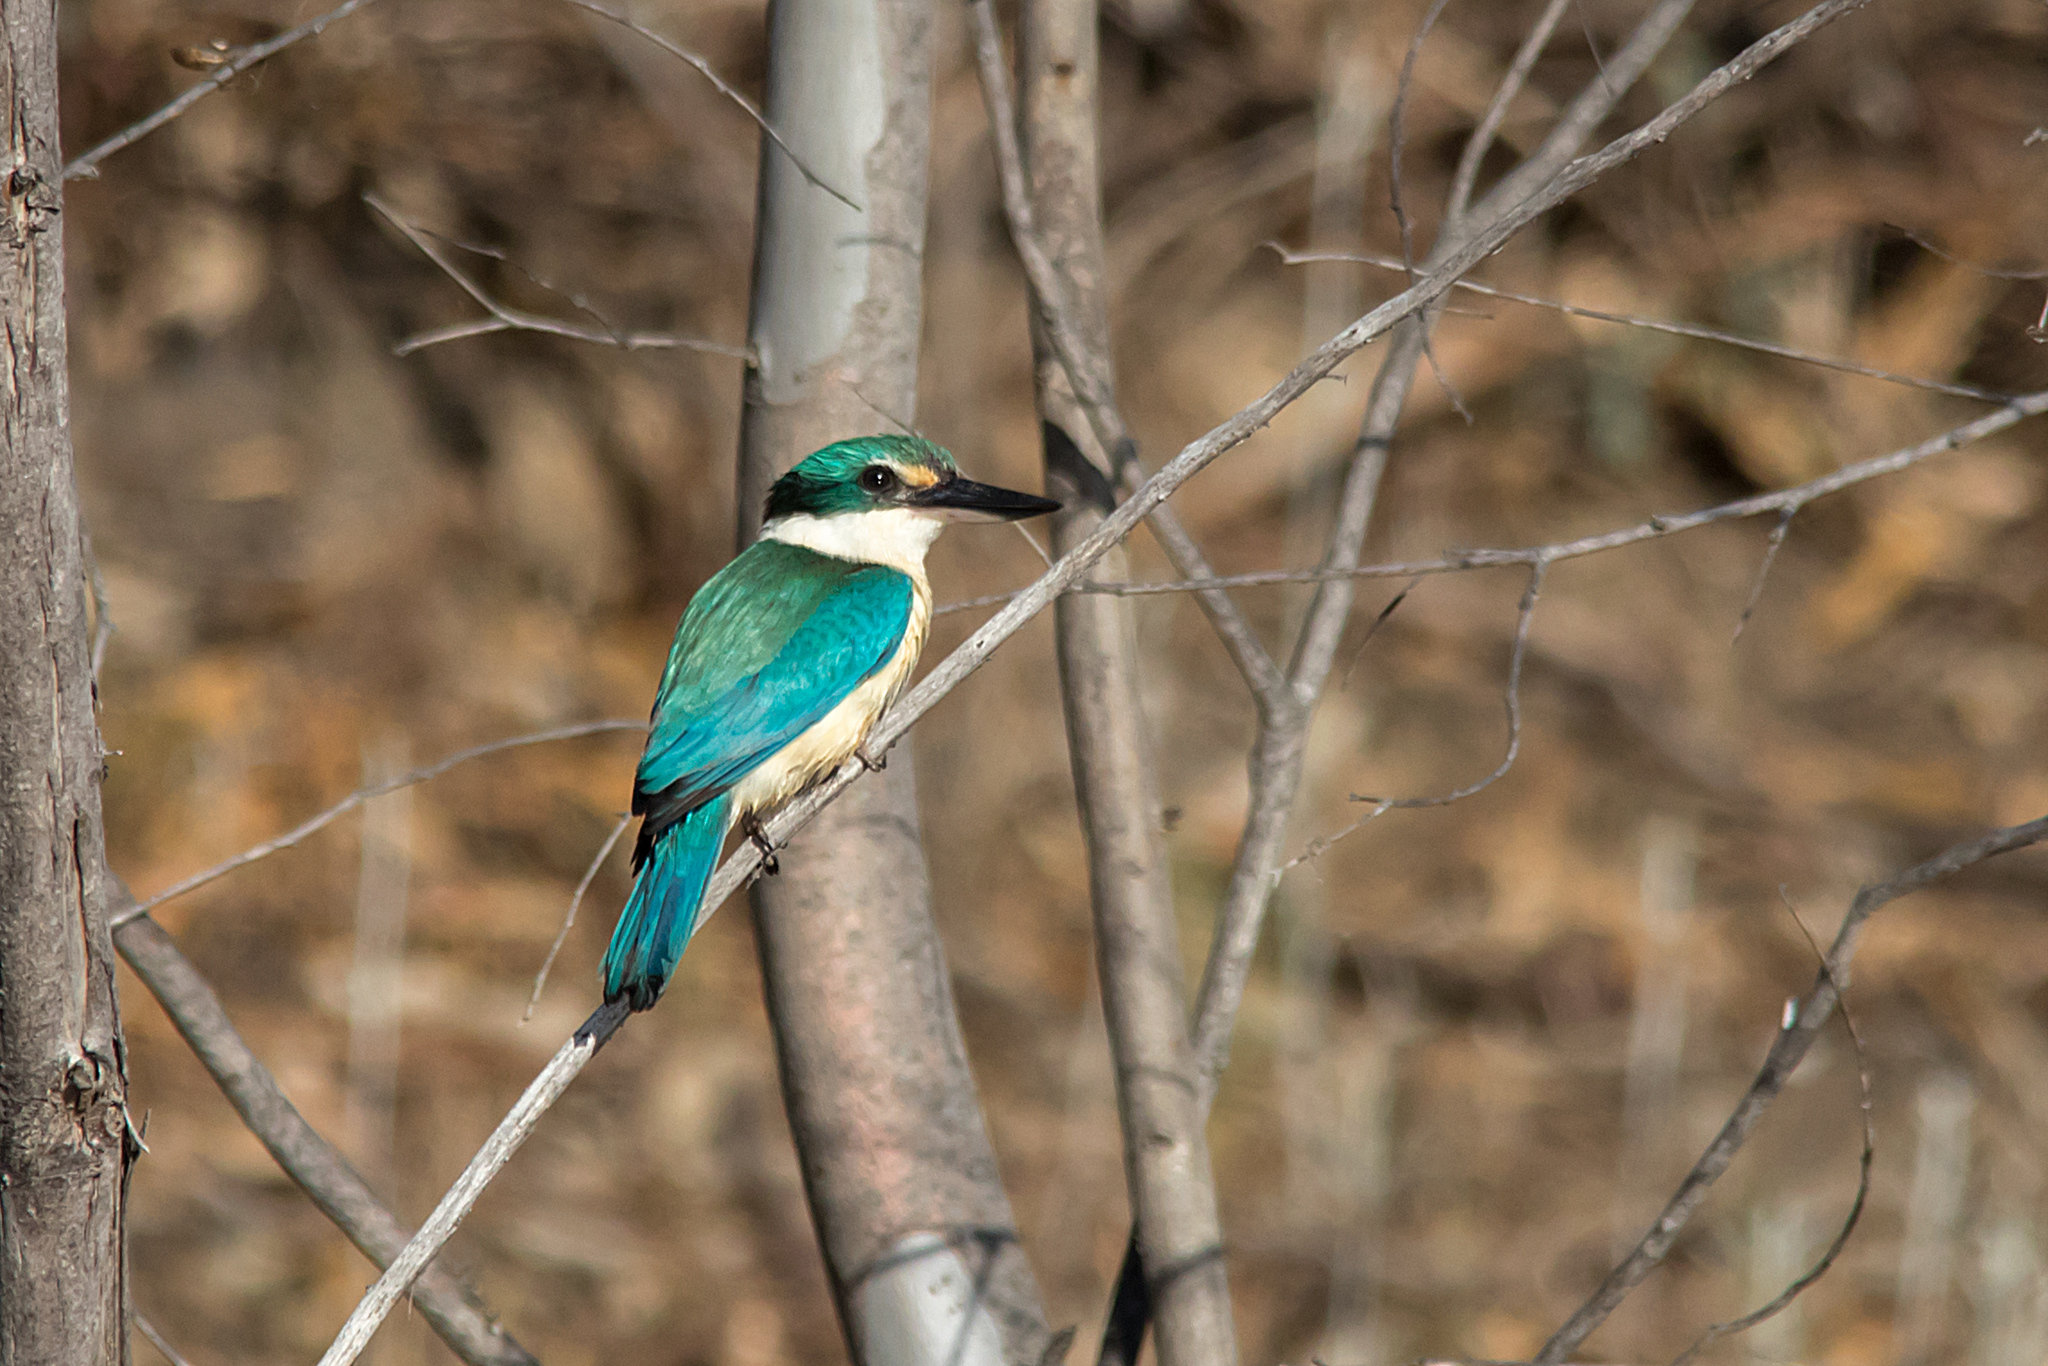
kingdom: Animalia
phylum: Chordata
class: Aves
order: Coraciiformes
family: Alcedinidae
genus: Todiramphus
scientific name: Todiramphus sanctus
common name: Sacred kingfisher
